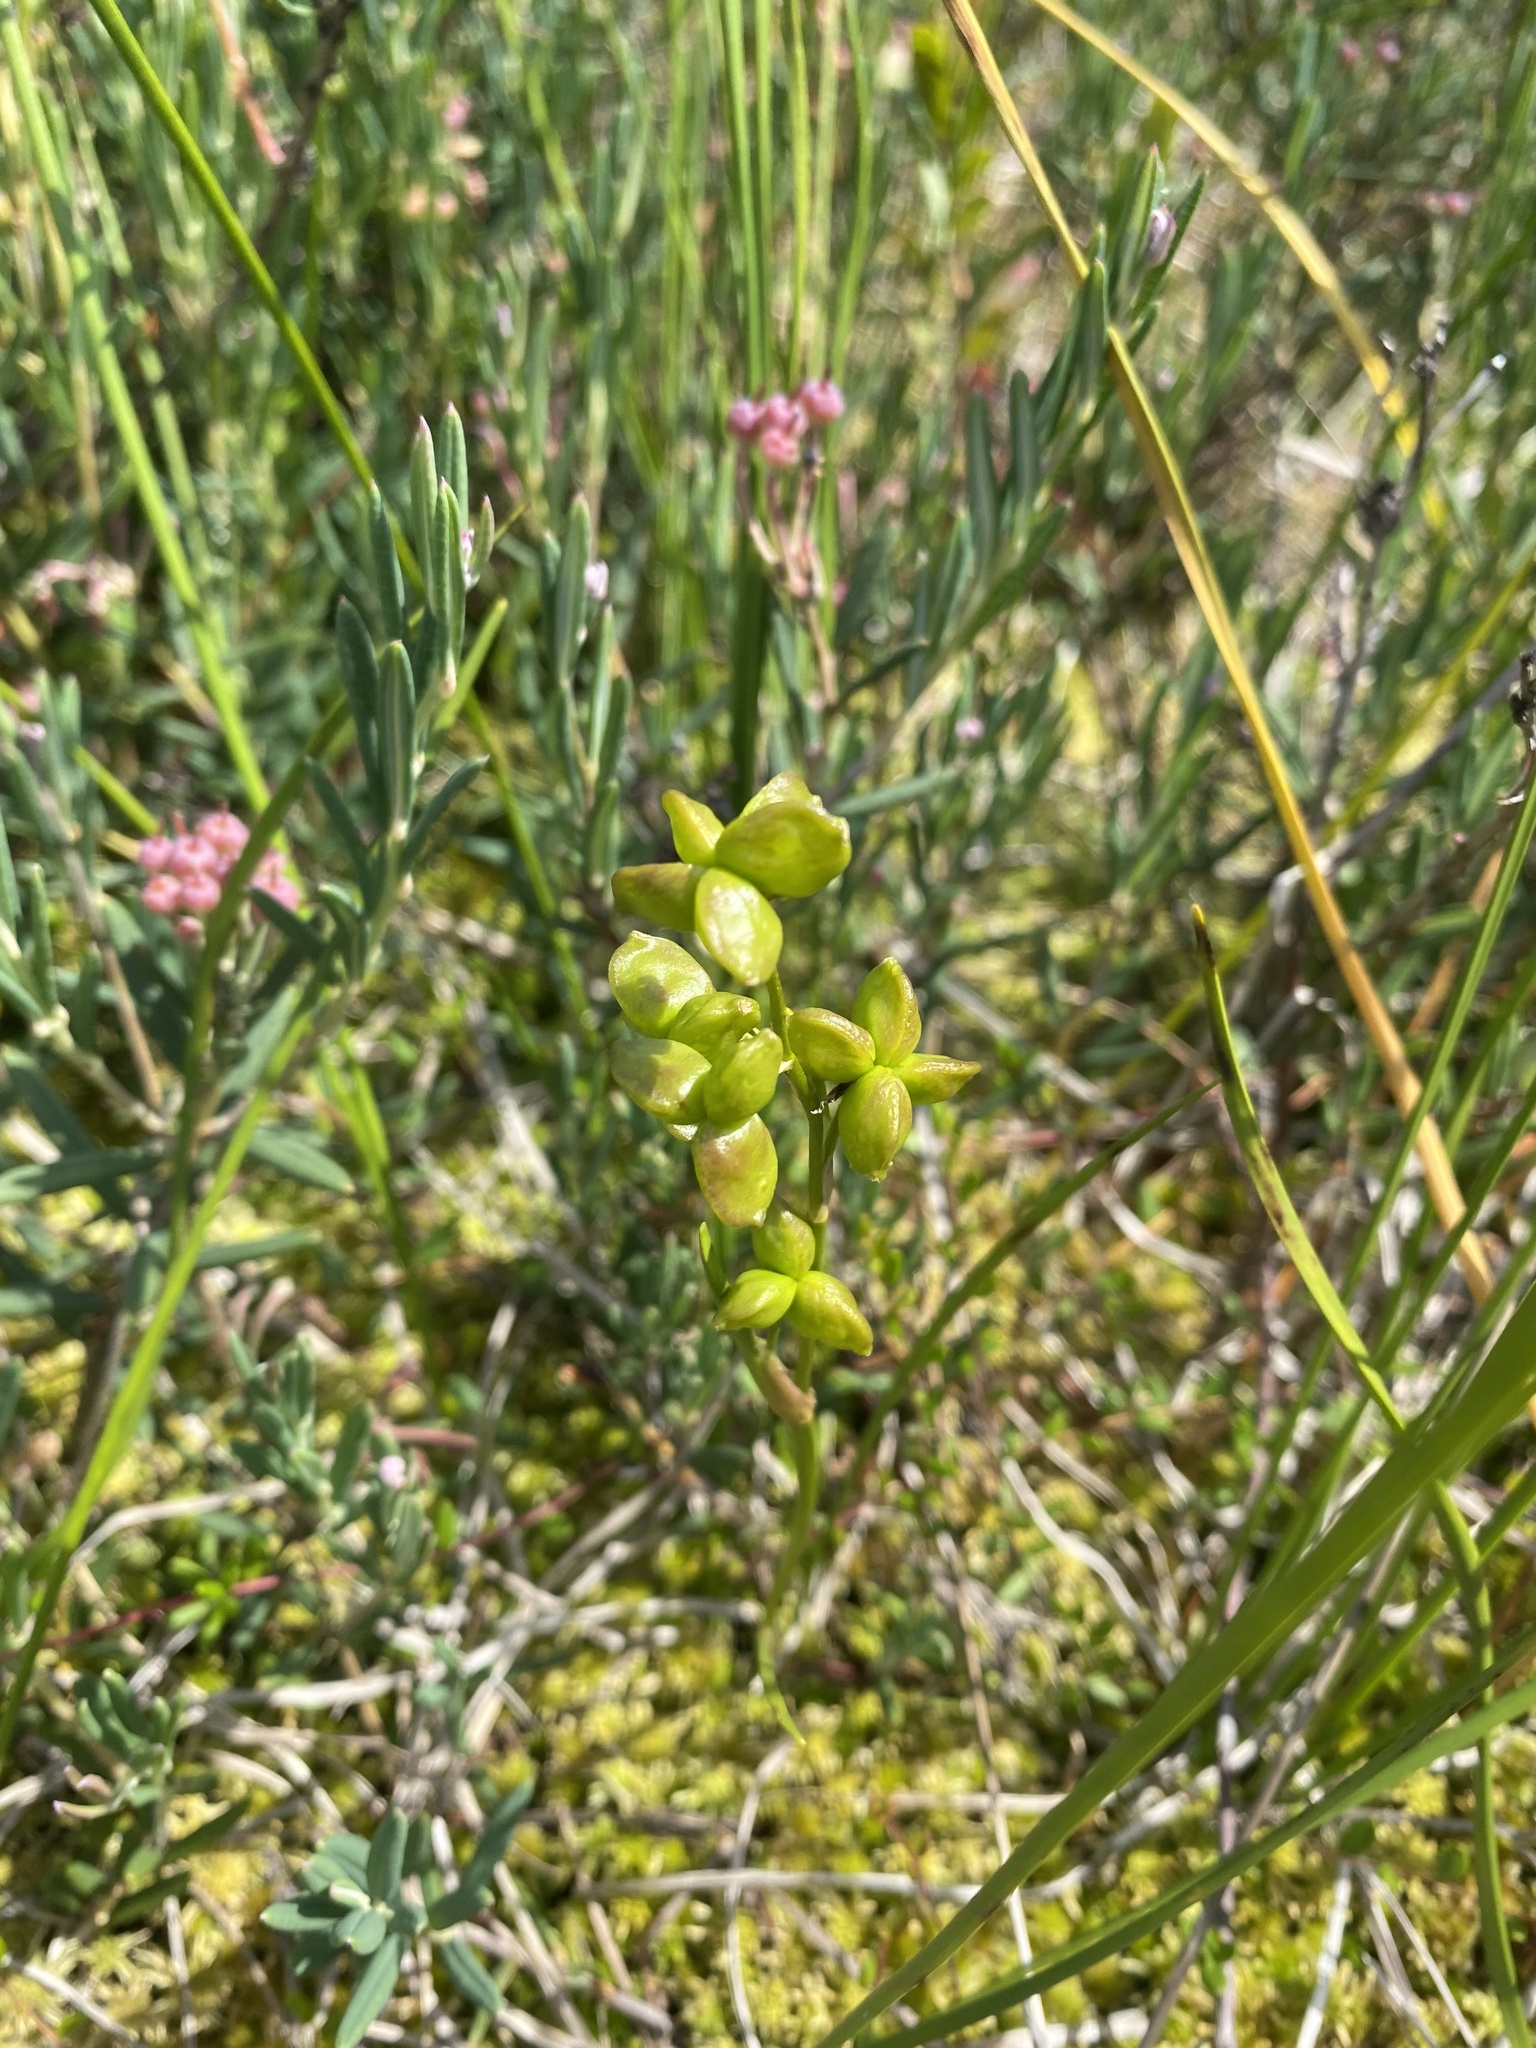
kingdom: Plantae
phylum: Tracheophyta
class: Liliopsida
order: Alismatales
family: Scheuchzeriaceae
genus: Scheuchzeria
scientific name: Scheuchzeria palustris
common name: Rannoch-rush
